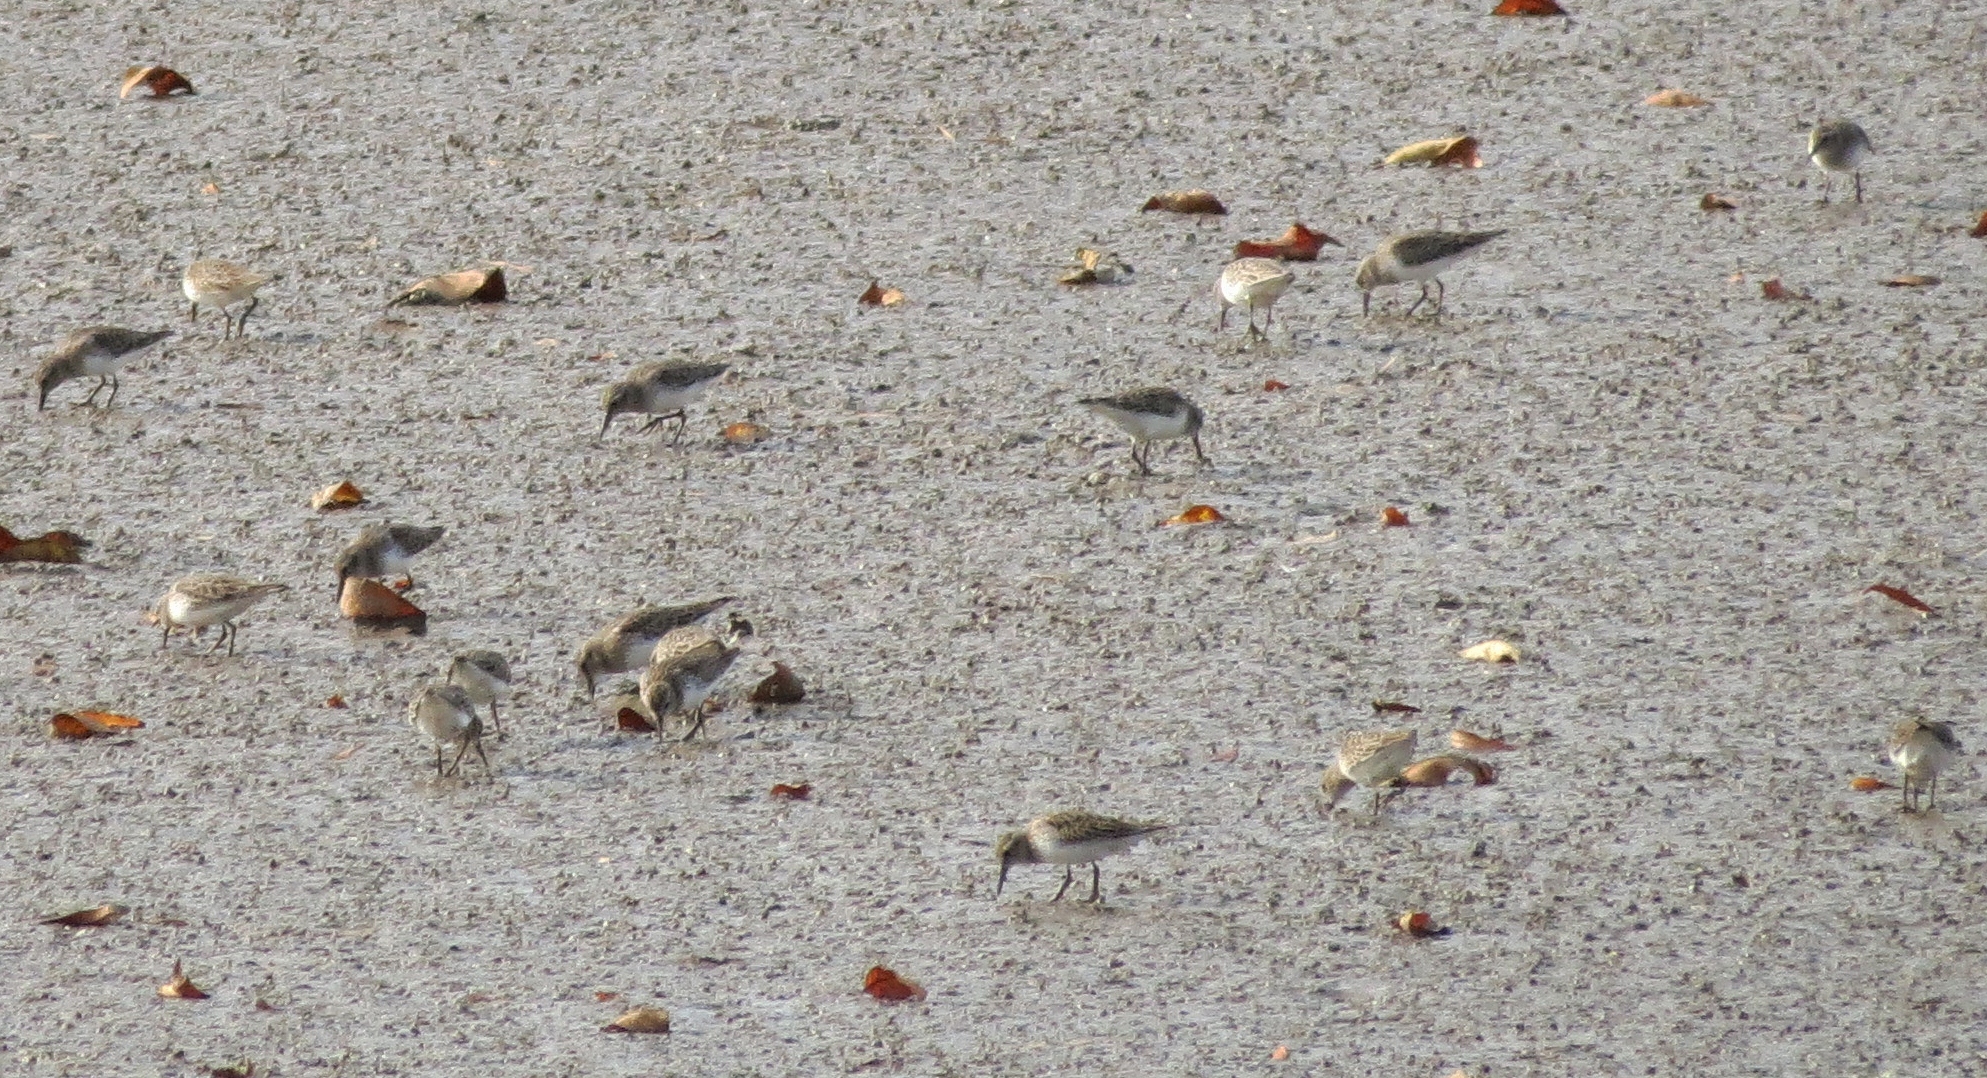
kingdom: Animalia
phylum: Chordata
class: Aves
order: Charadriiformes
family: Scolopacidae
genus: Calidris
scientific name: Calidris minutilla
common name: Least sandpiper
